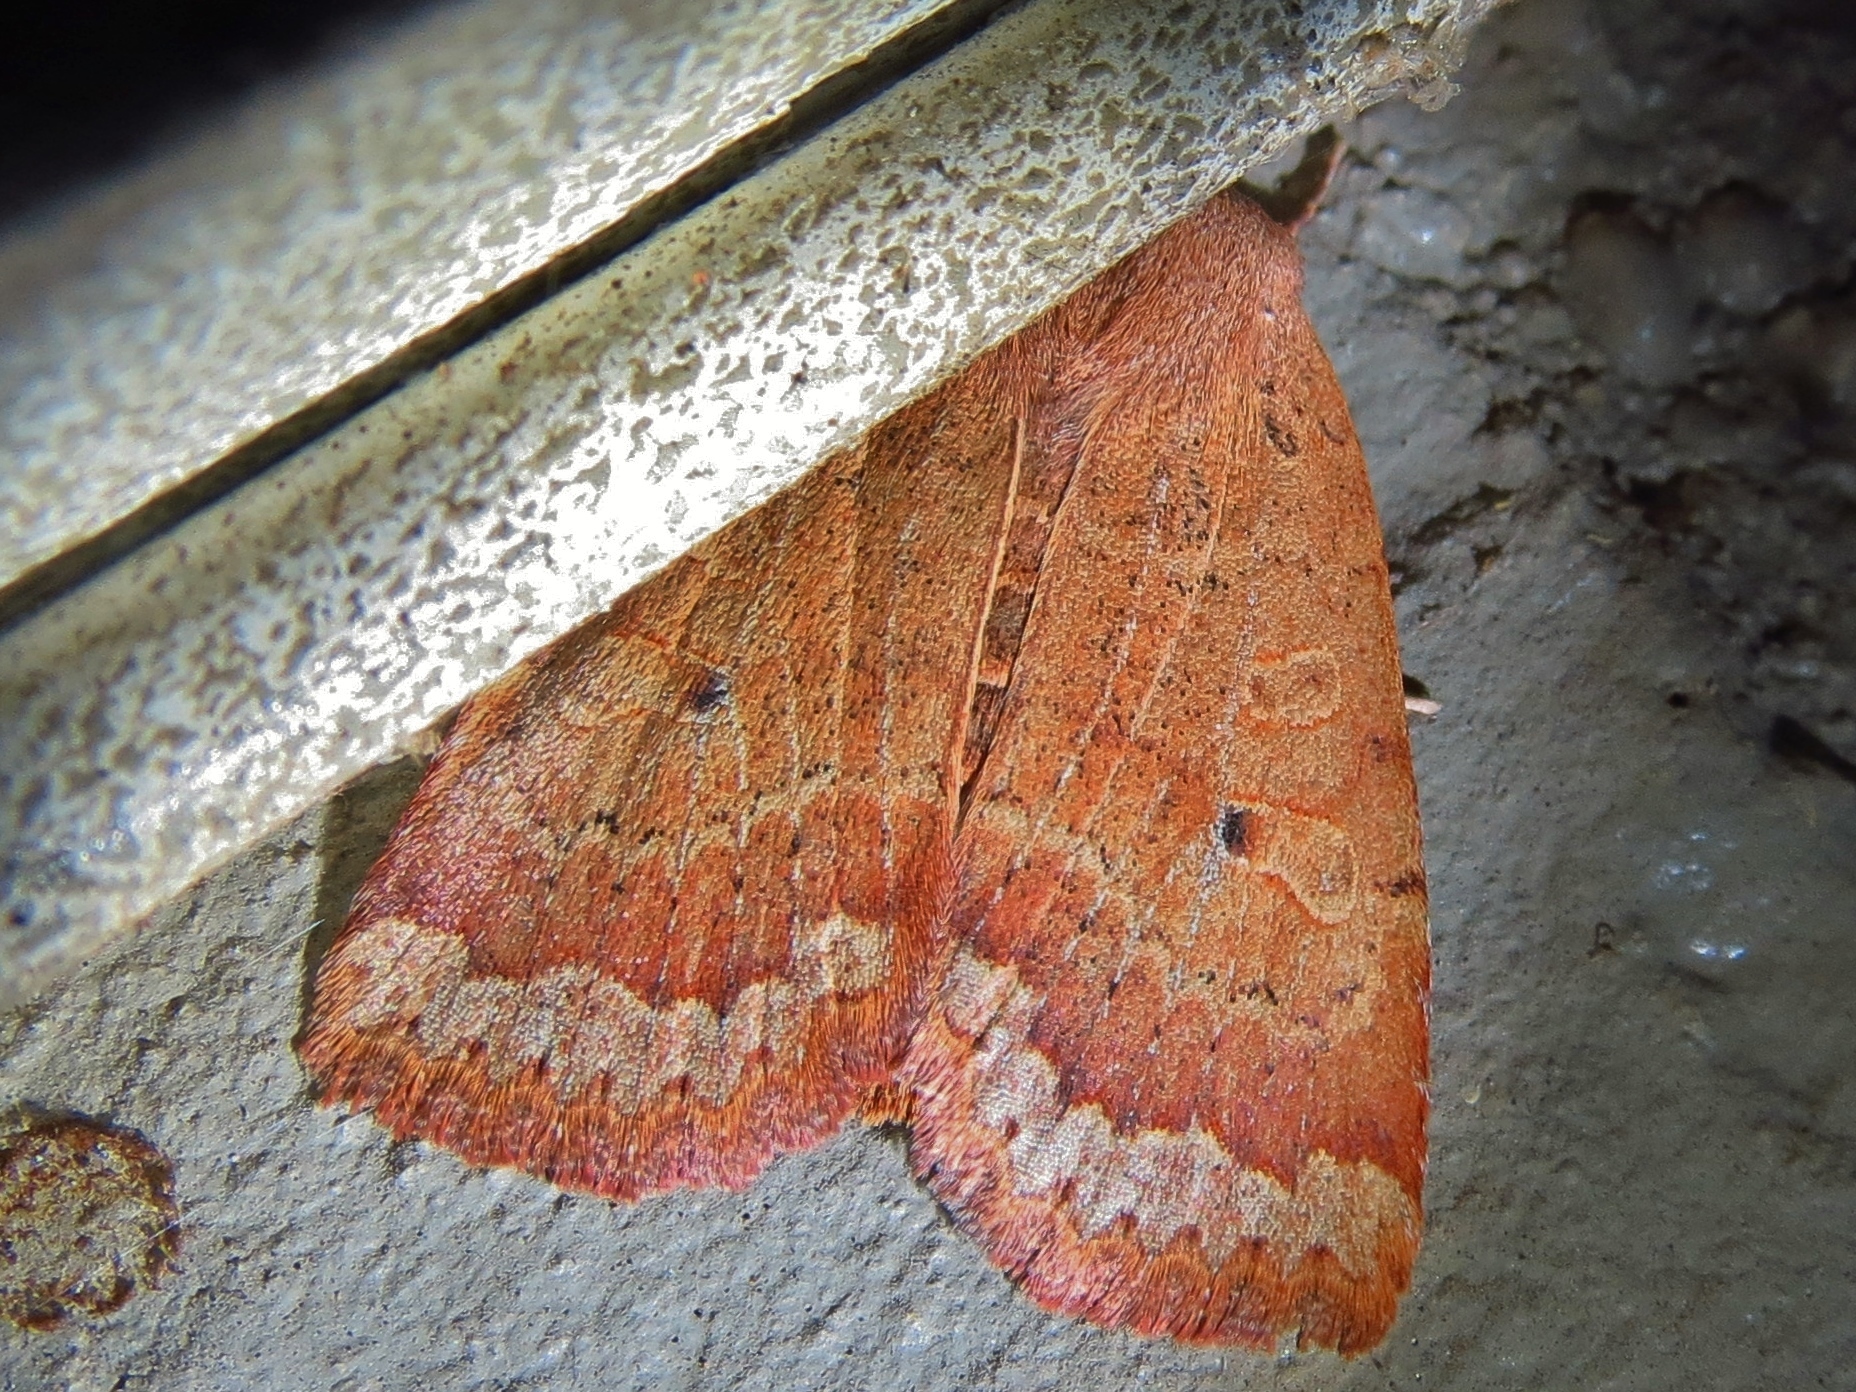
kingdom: Animalia
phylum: Arthropoda
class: Insecta
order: Lepidoptera
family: Noctuidae
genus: Sericaglaea
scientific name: Sericaglaea signata
